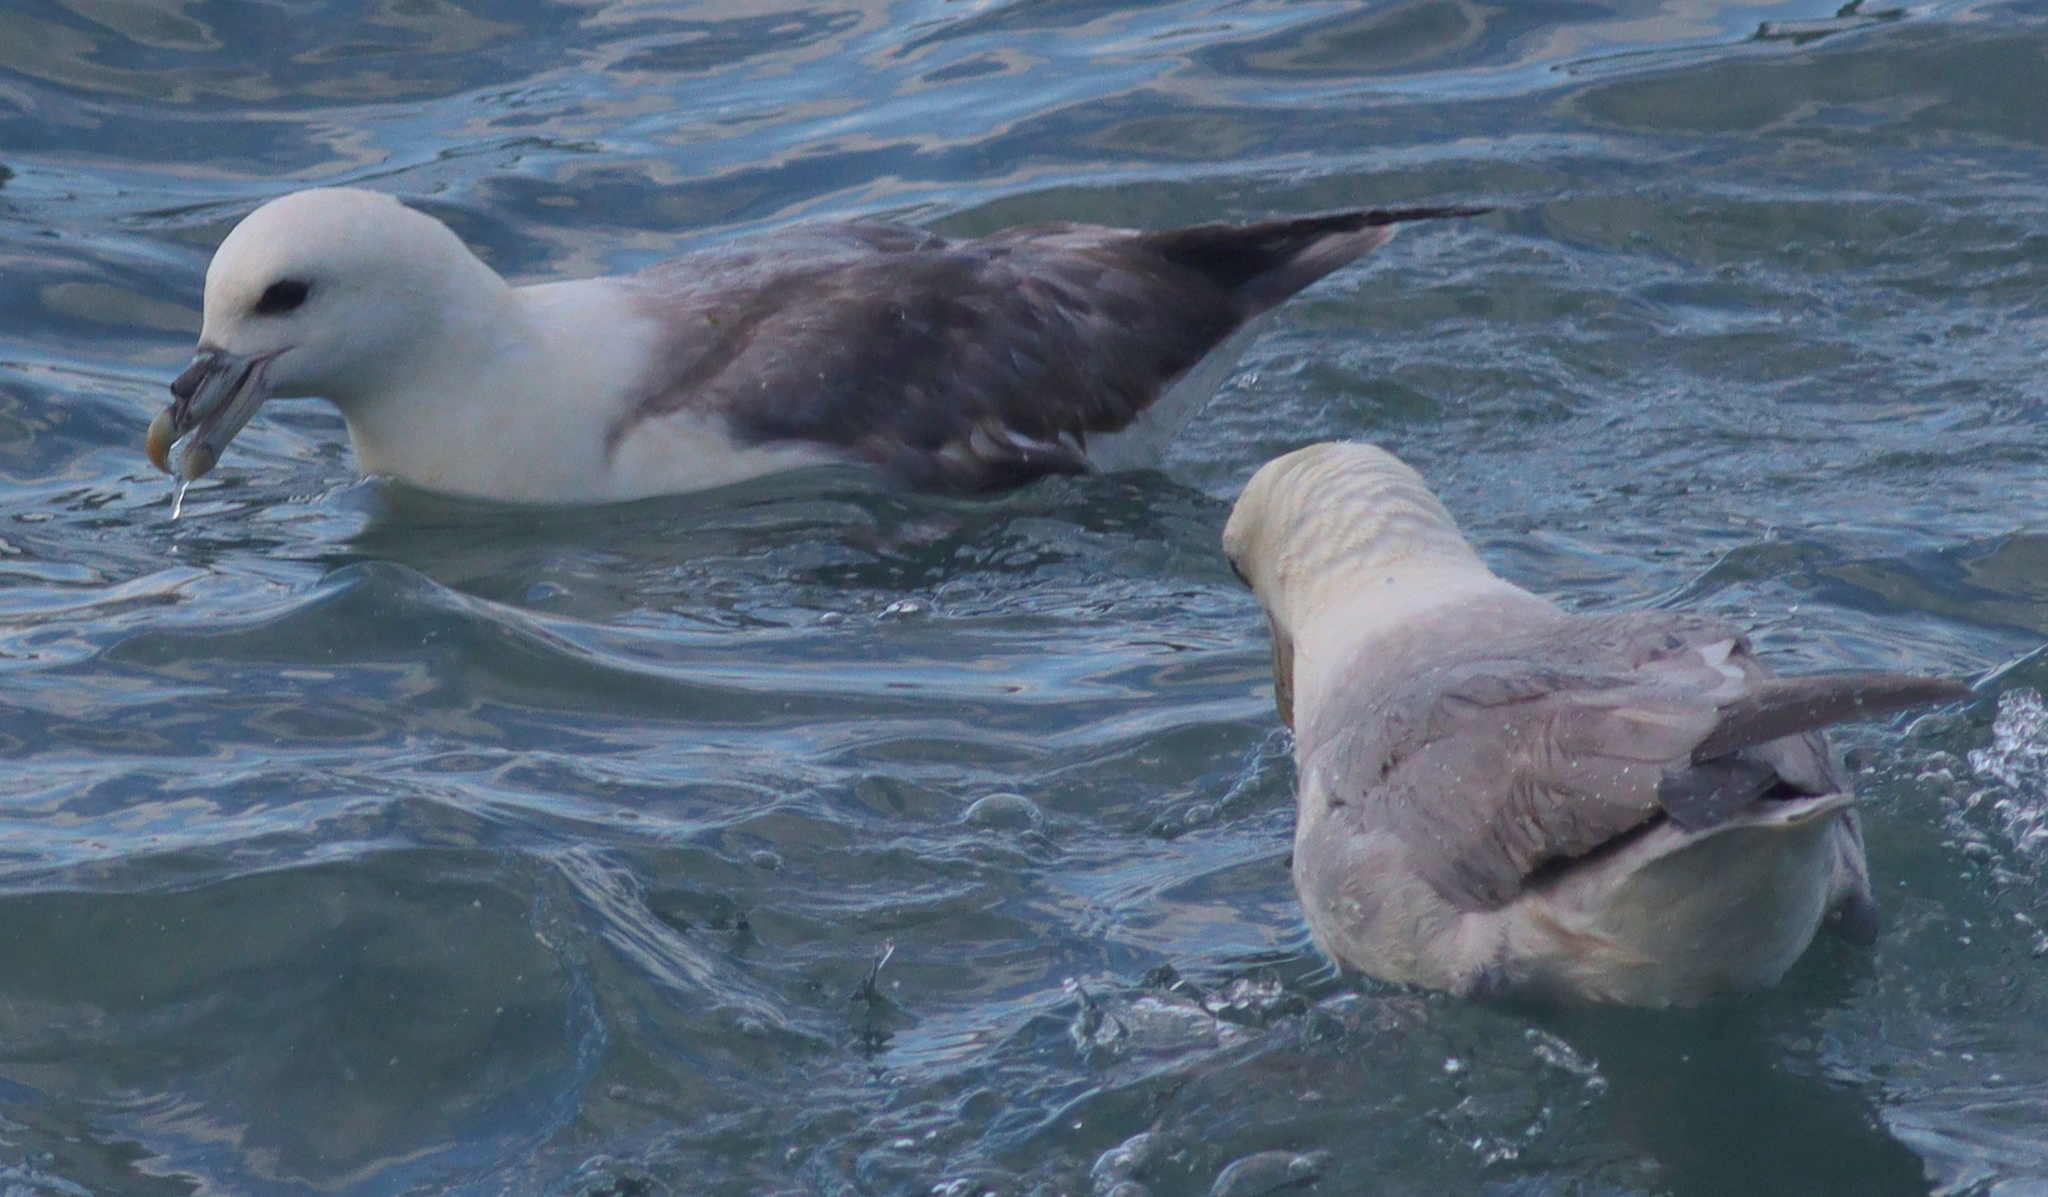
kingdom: Animalia
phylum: Chordata
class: Aves
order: Procellariiformes
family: Procellariidae
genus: Fulmarus
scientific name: Fulmarus glacialis
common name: Northern fulmar
